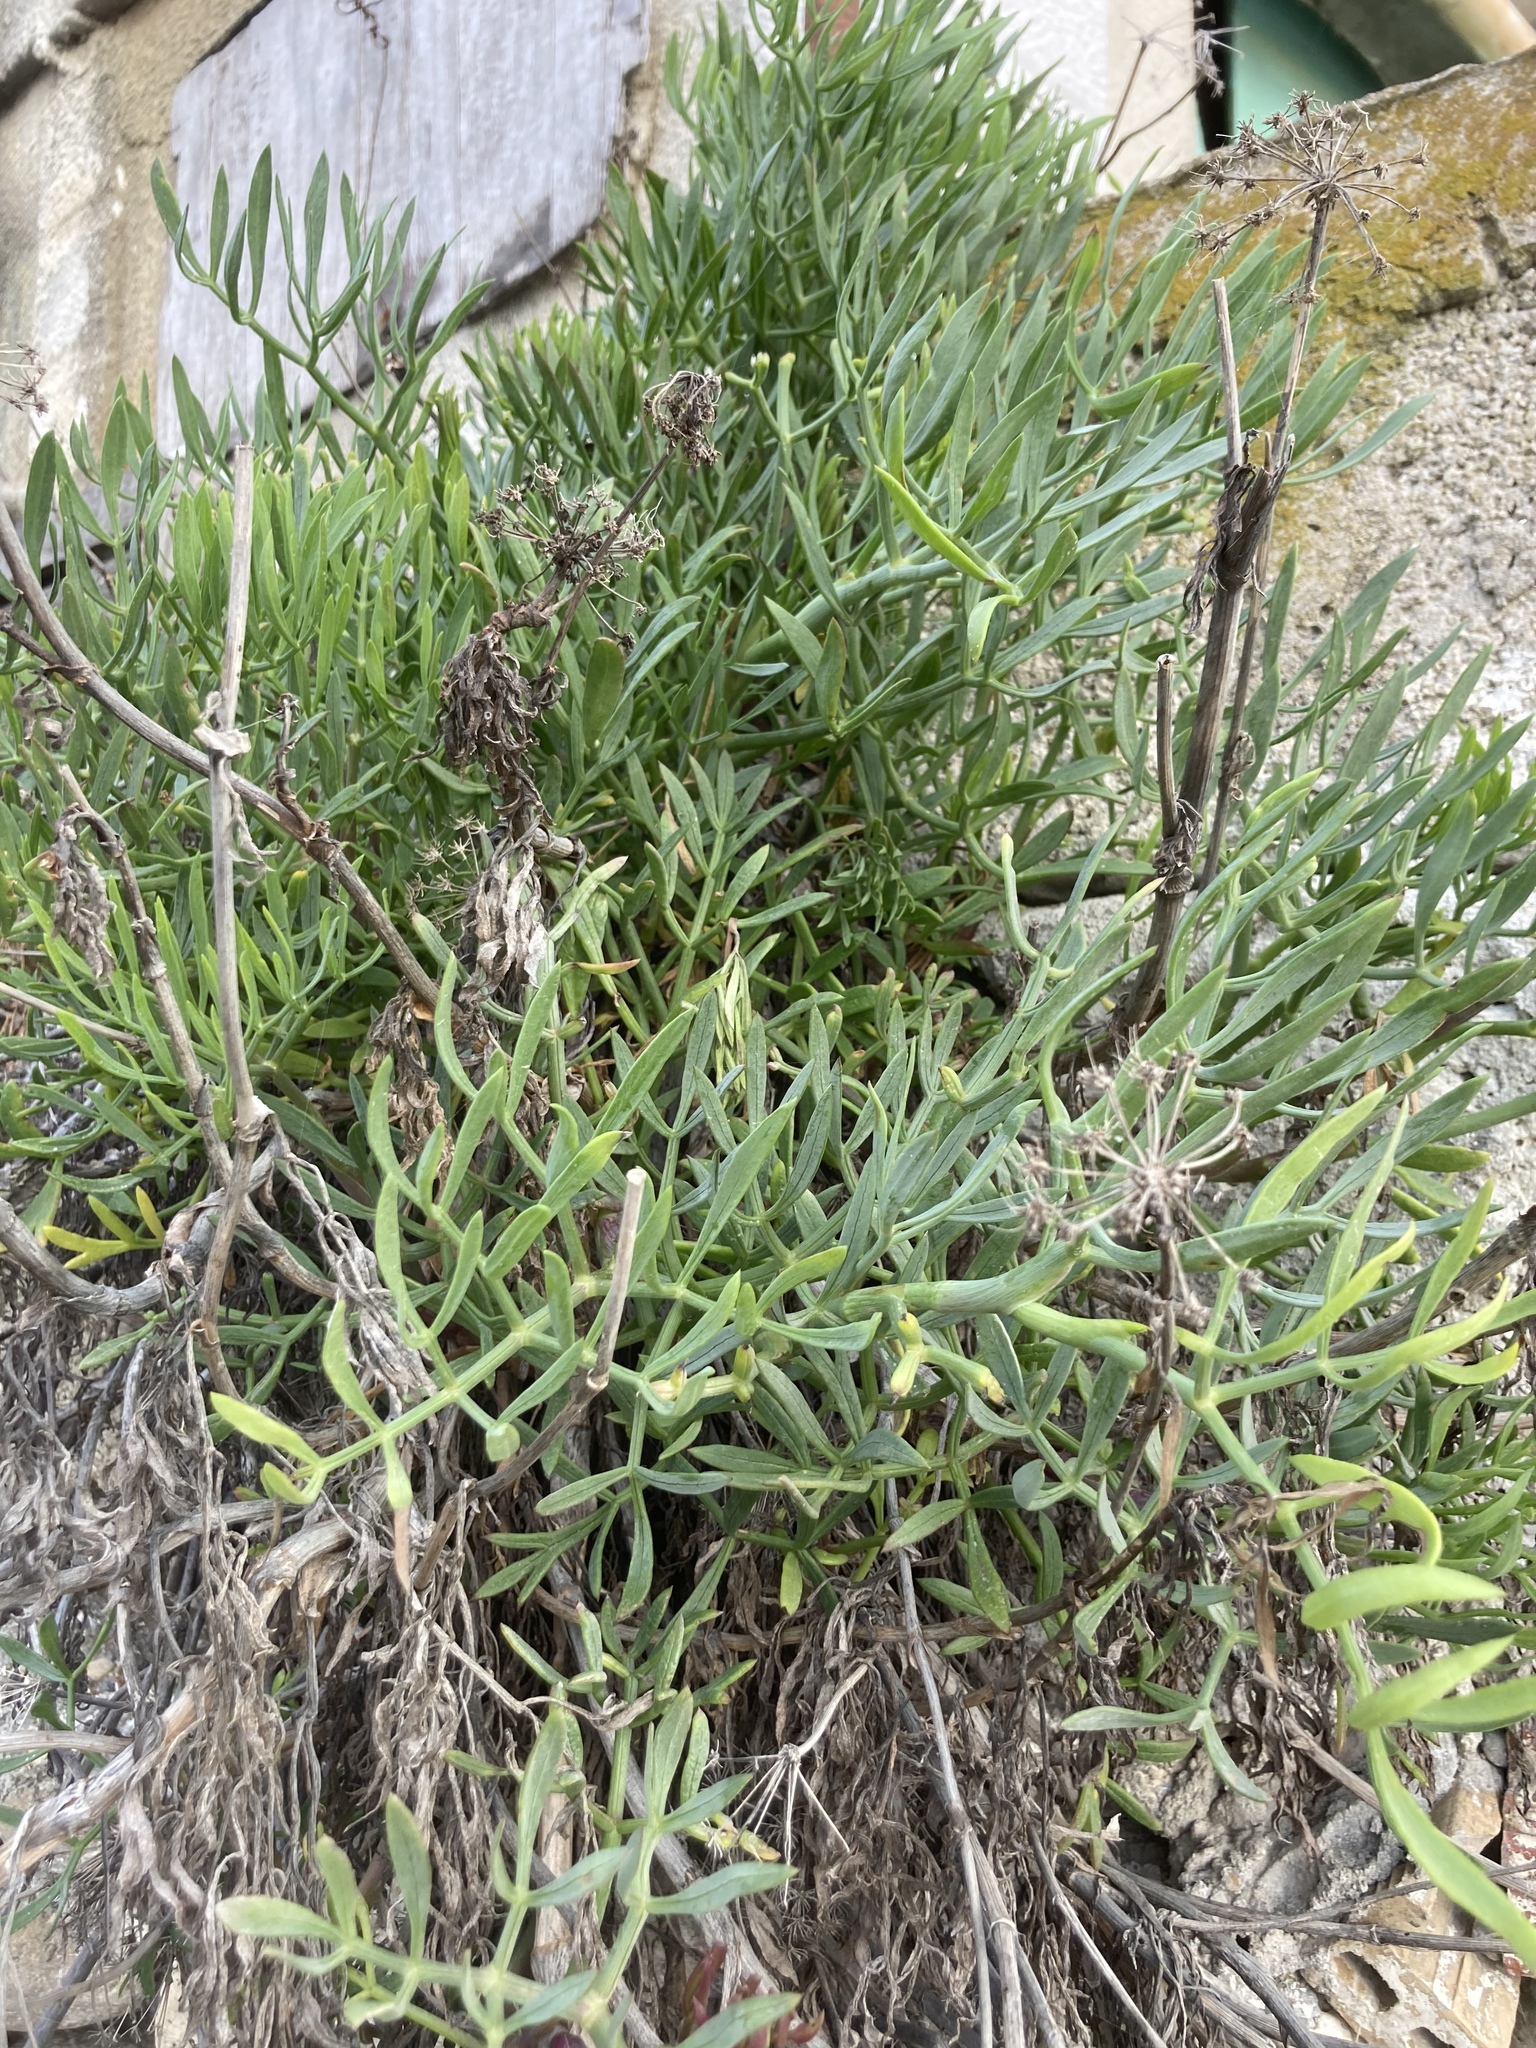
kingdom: Plantae
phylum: Tracheophyta
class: Magnoliopsida
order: Apiales
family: Apiaceae
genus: Crithmum
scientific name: Crithmum maritimum
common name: Rock samphire
